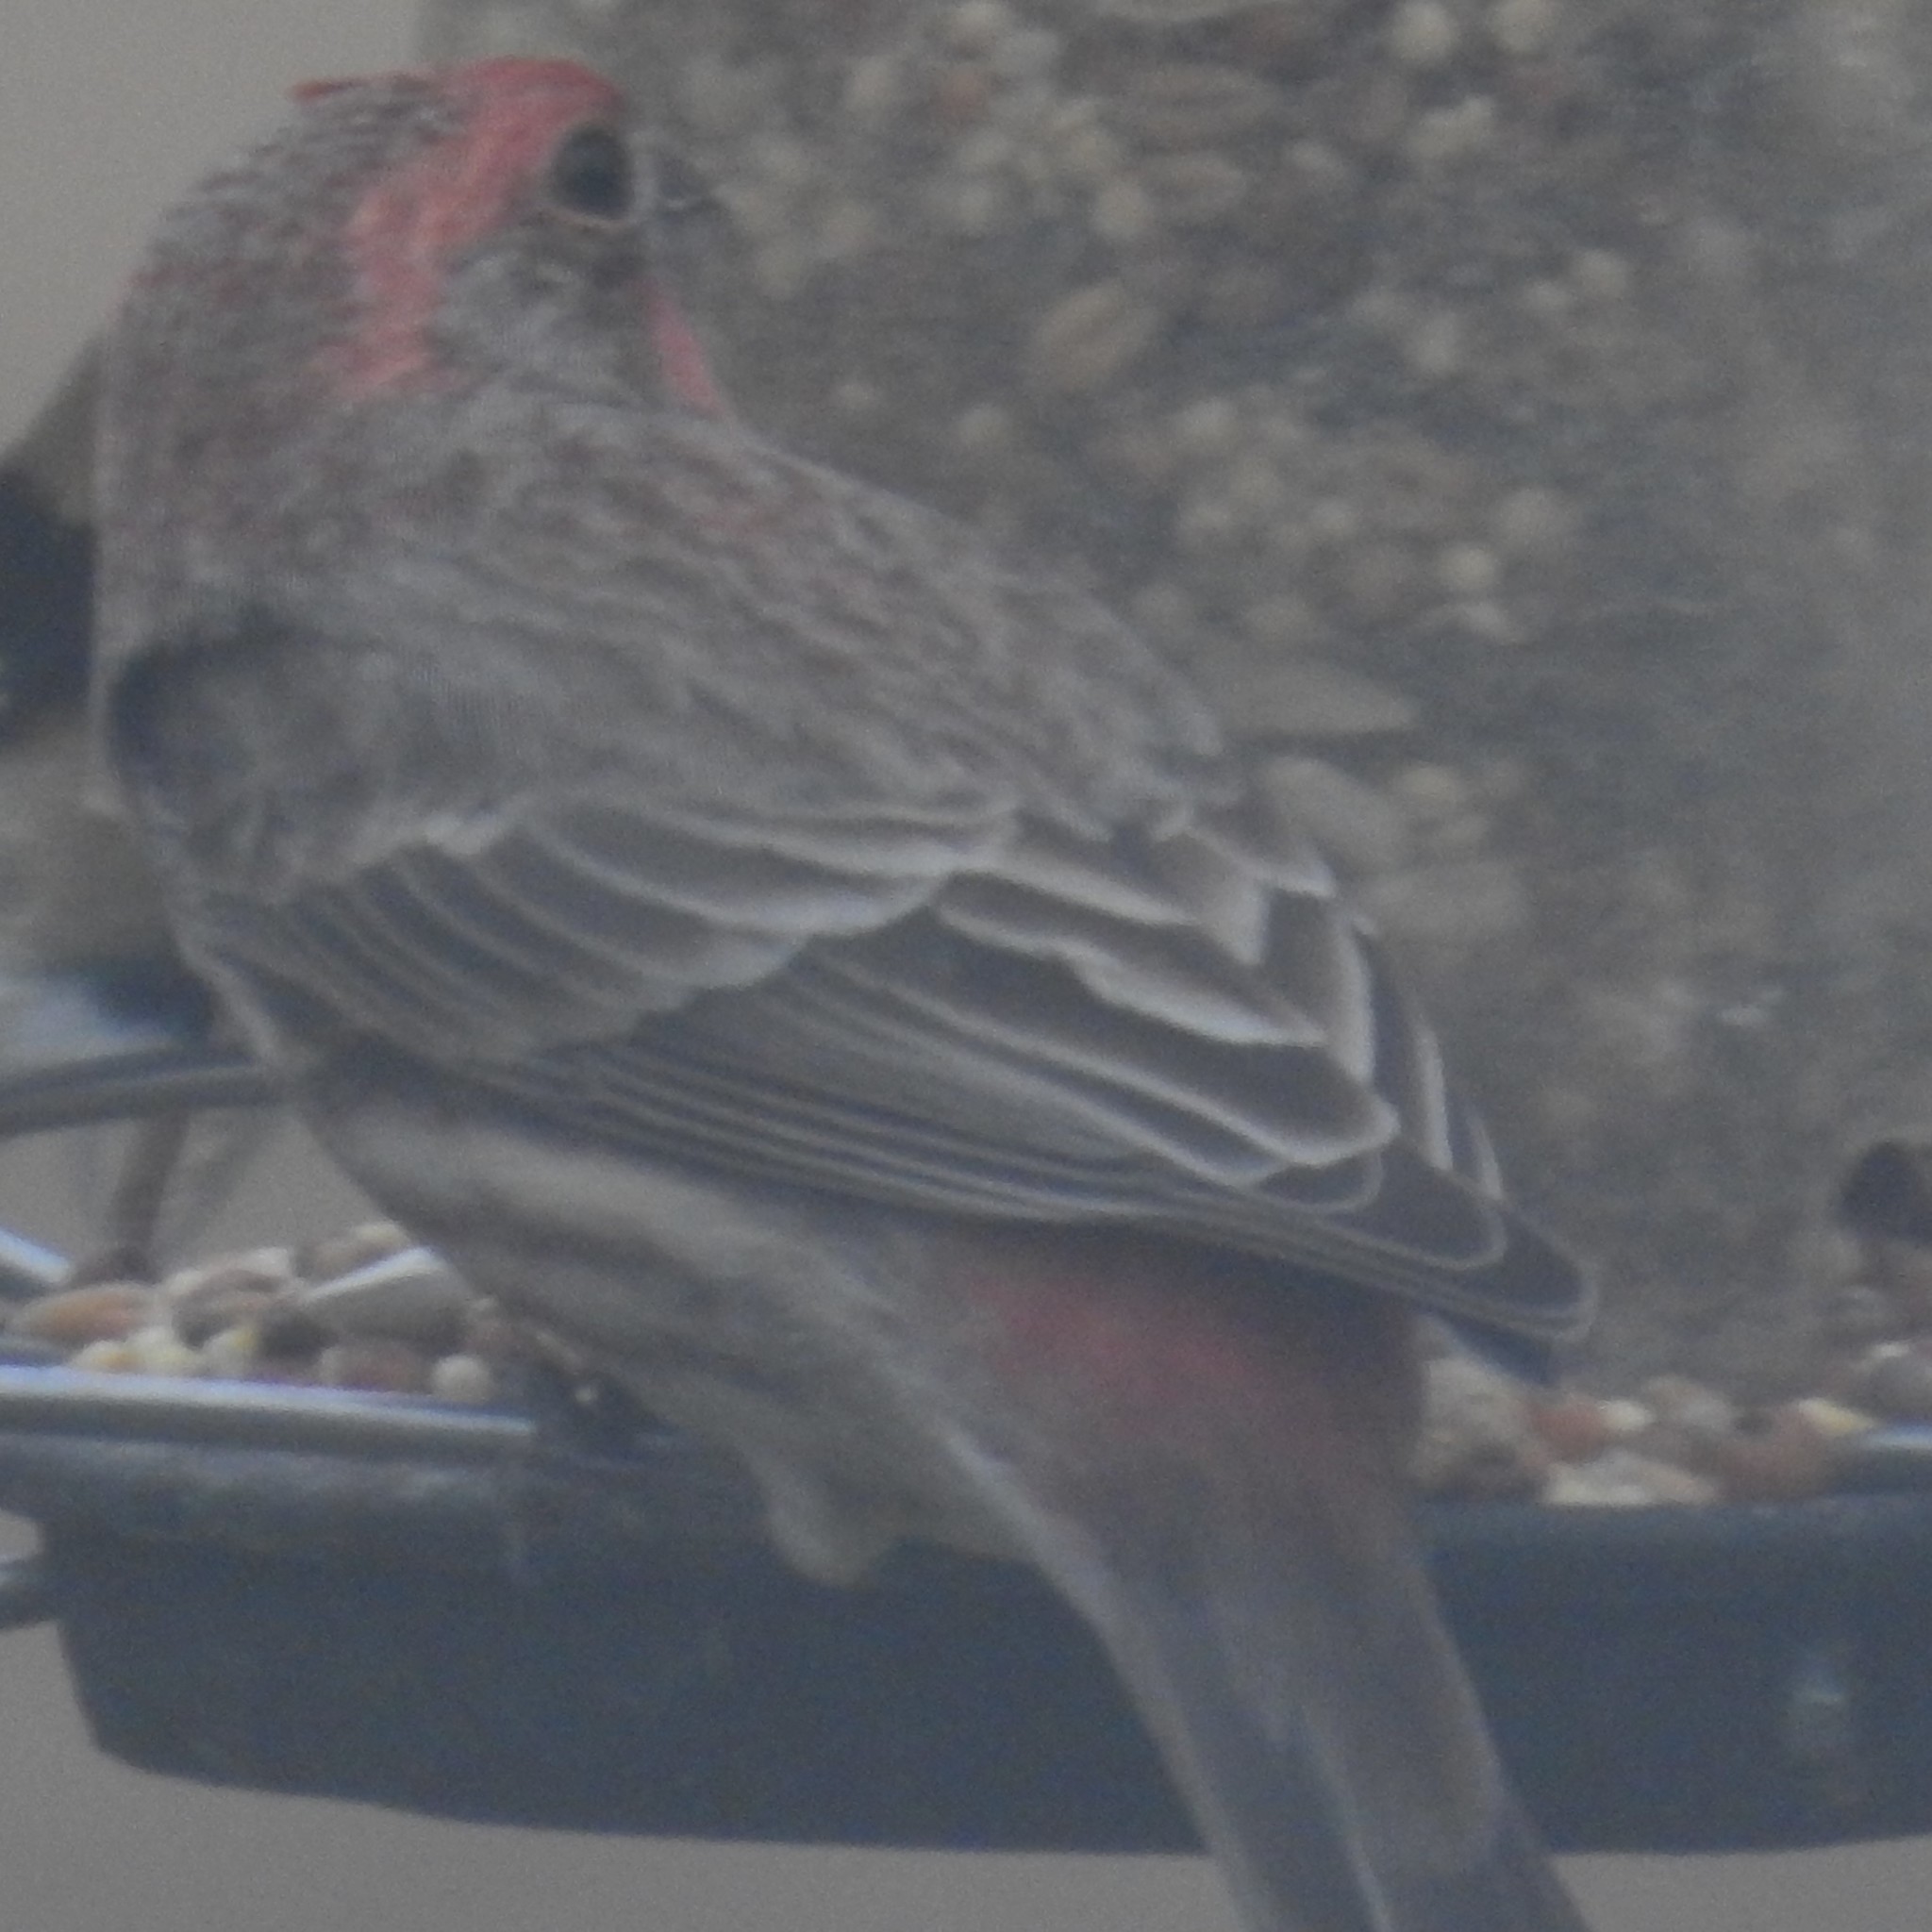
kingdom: Animalia
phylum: Chordata
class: Aves
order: Passeriformes
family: Fringillidae
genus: Haemorhous
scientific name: Haemorhous mexicanus
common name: House finch
